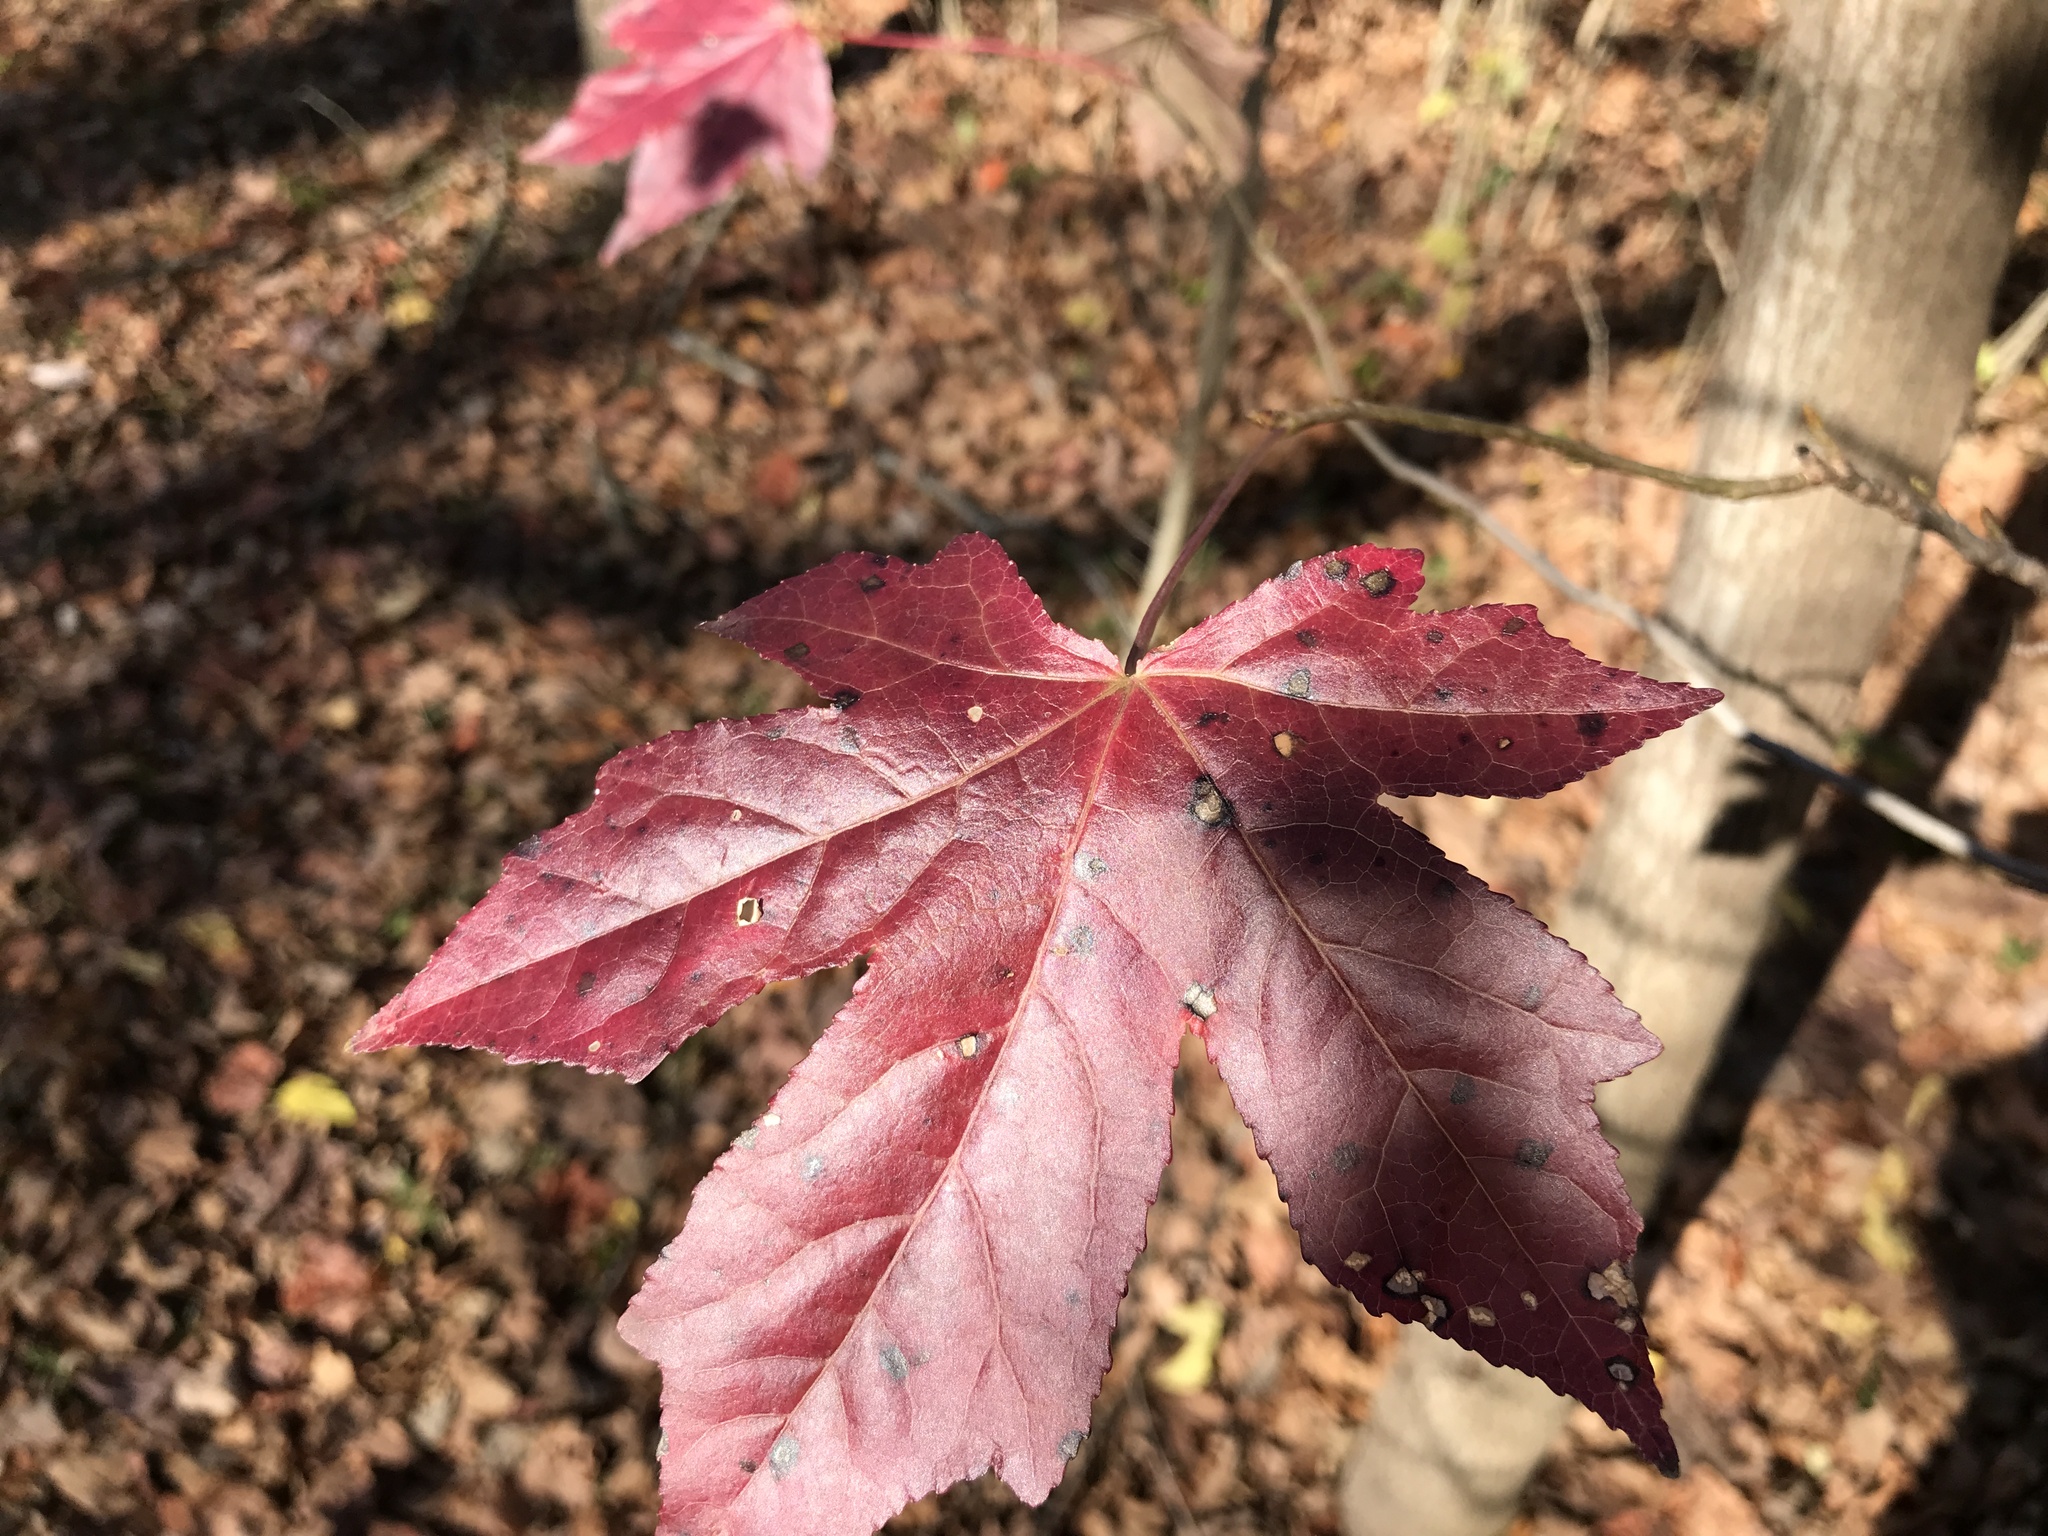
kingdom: Plantae
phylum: Tracheophyta
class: Magnoliopsida
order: Saxifragales
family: Altingiaceae
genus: Liquidambar
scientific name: Liquidambar styraciflua
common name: Sweet gum
